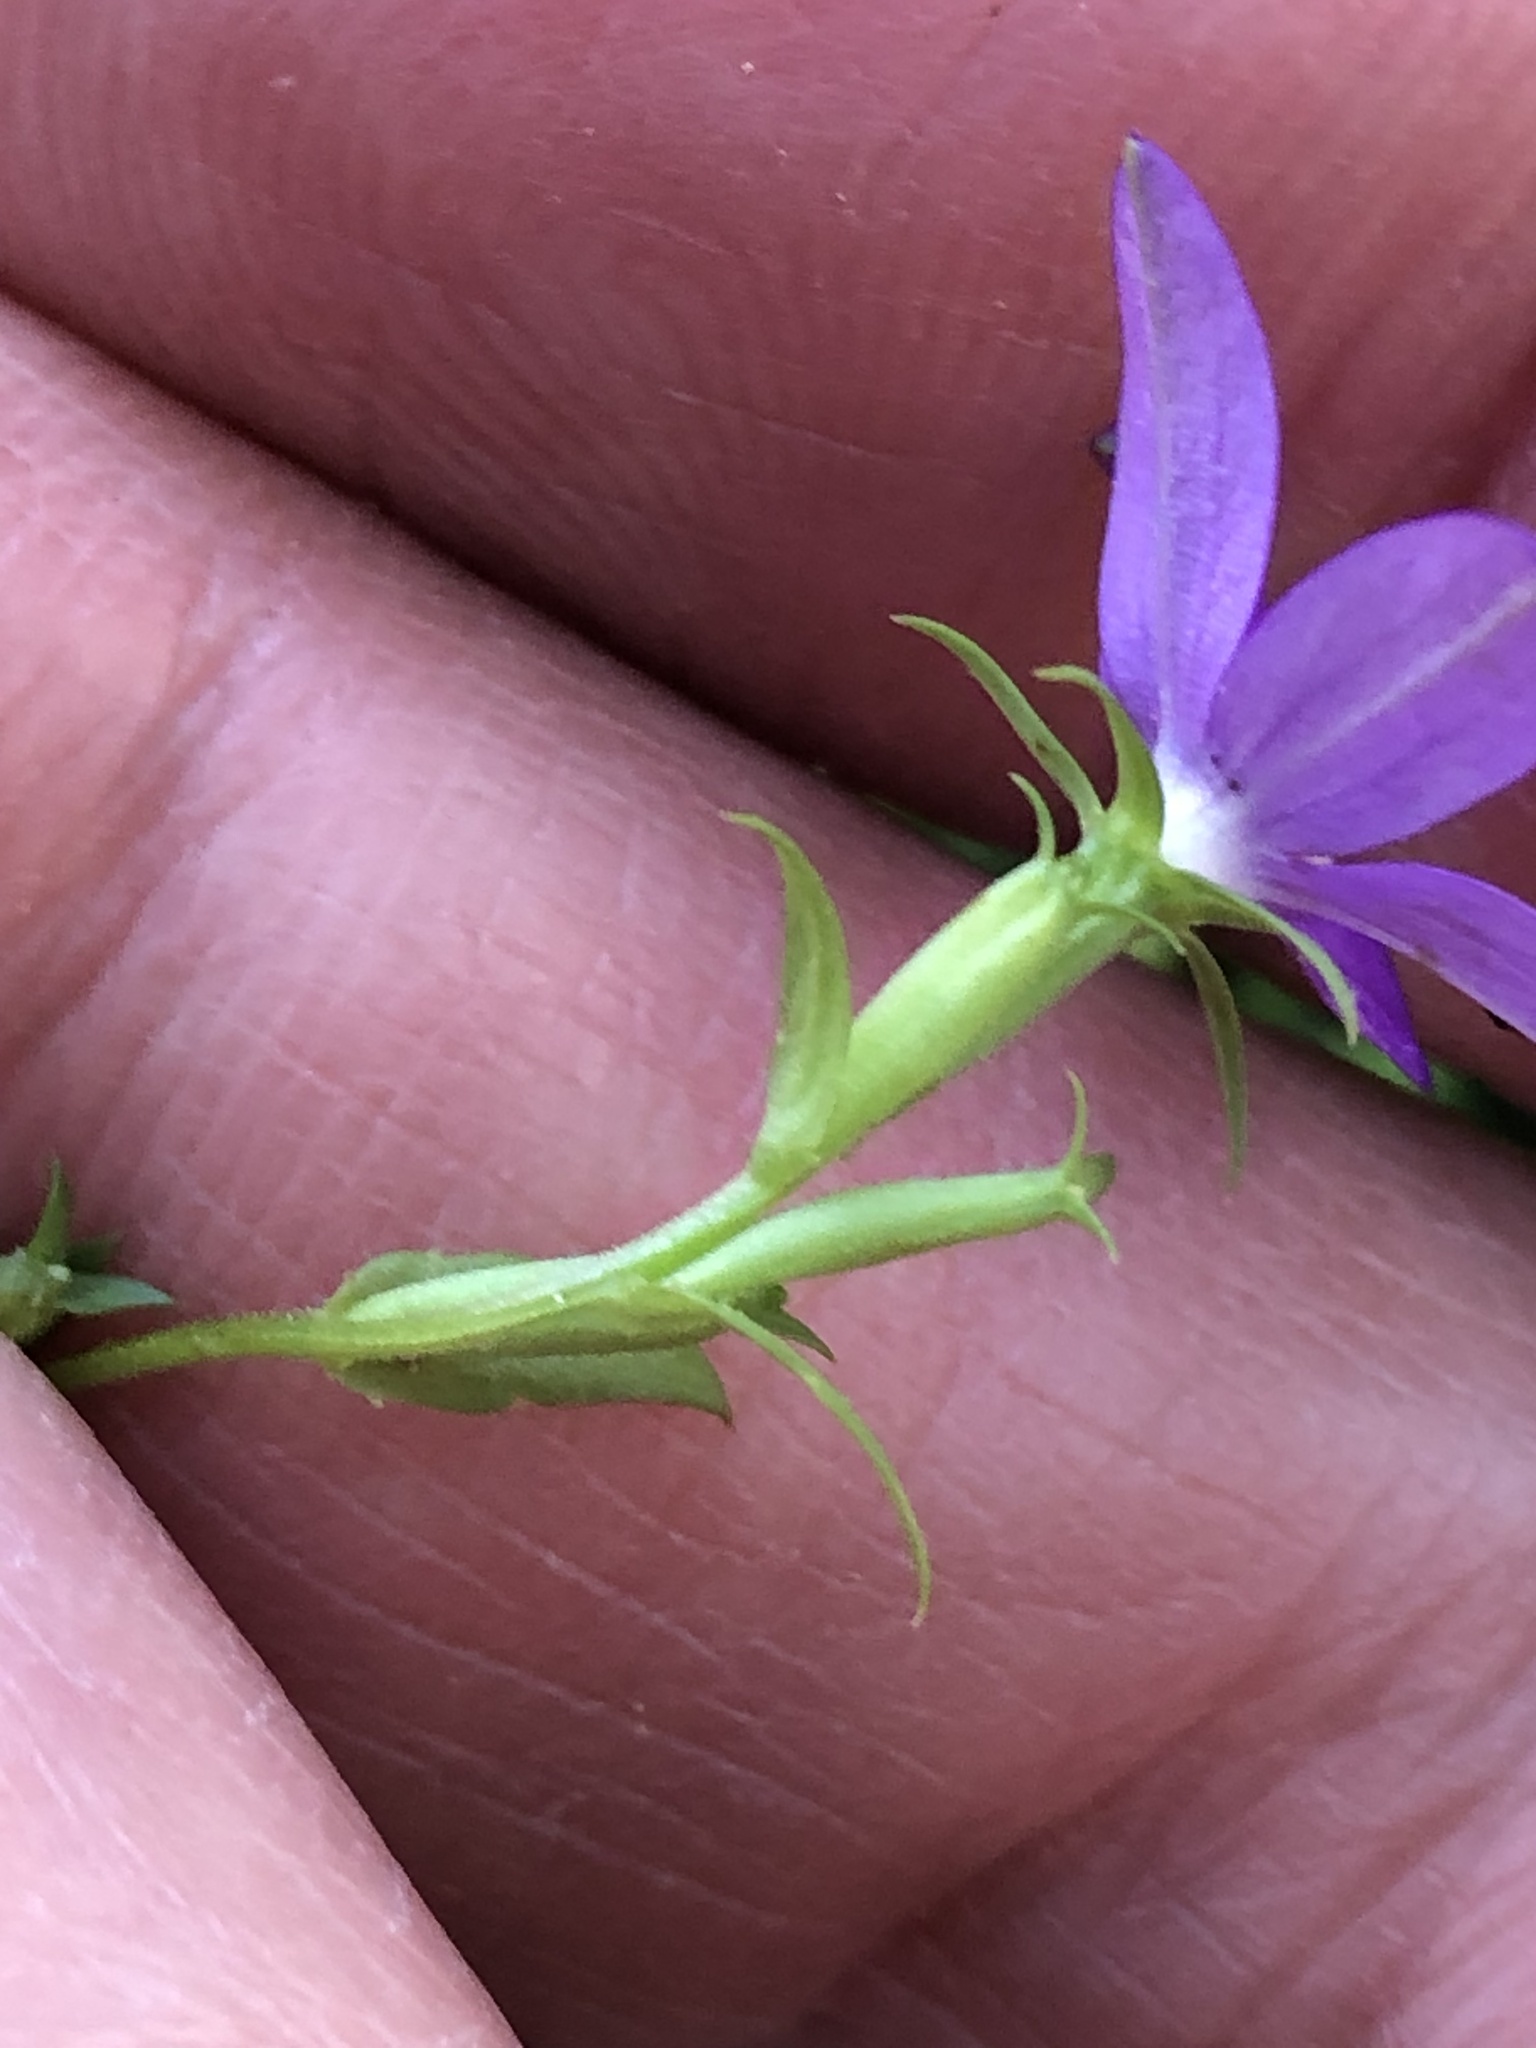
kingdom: Plantae
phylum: Tracheophyta
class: Magnoliopsida
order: Asterales
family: Campanulaceae
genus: Triodanis
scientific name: Triodanis biflora
